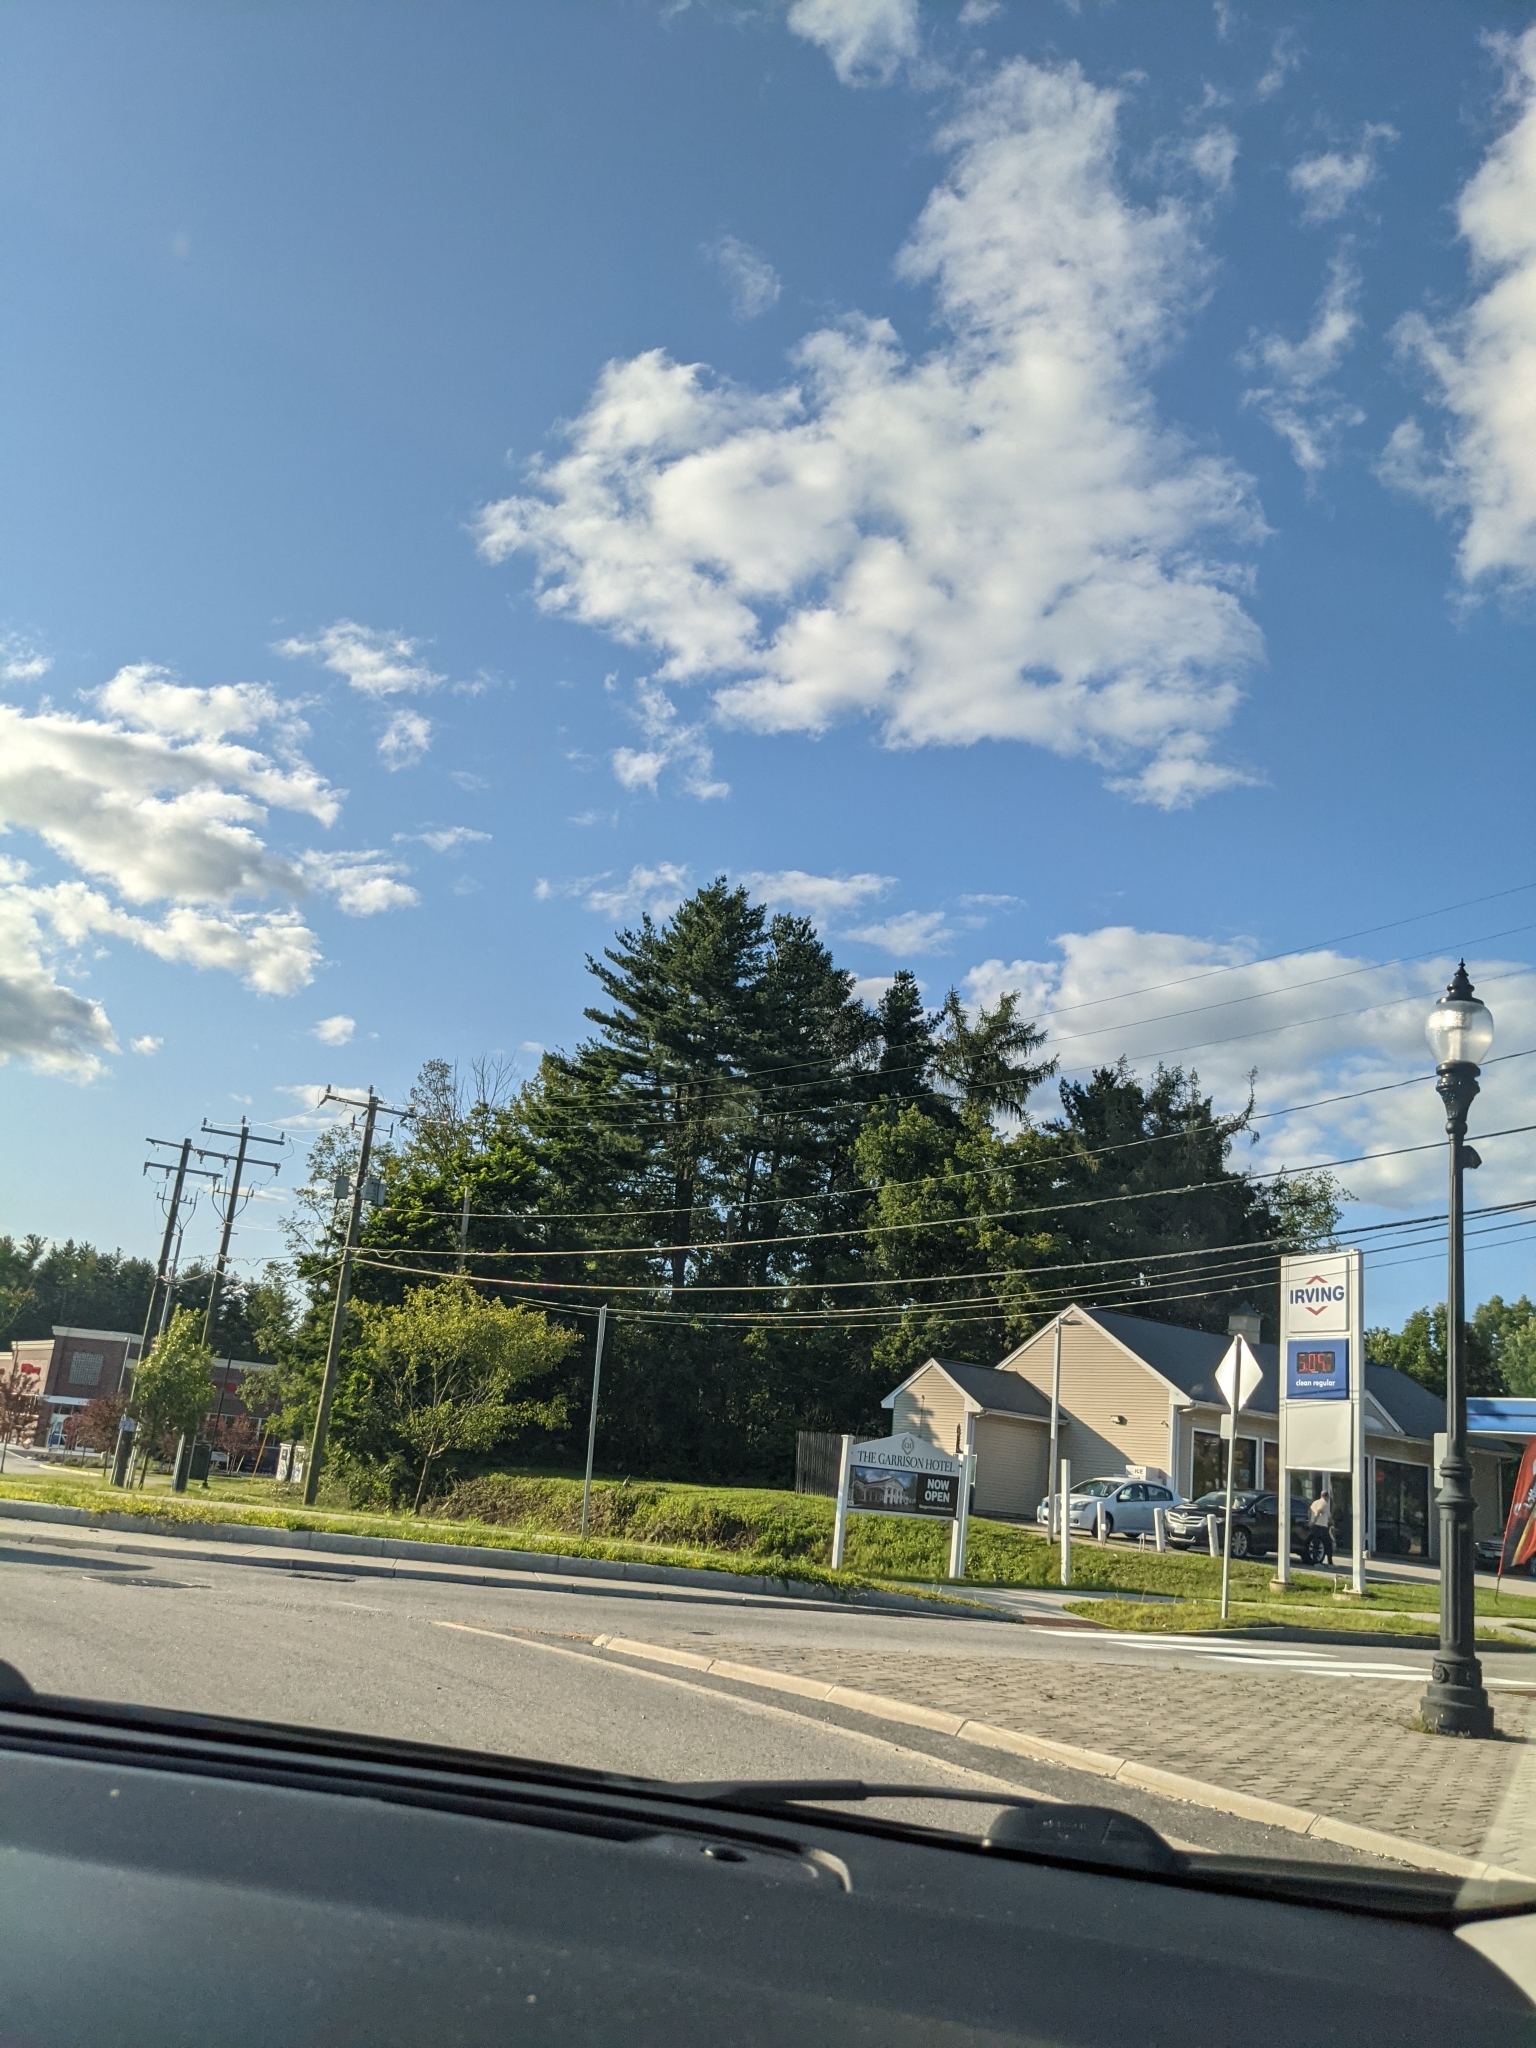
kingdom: Plantae
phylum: Tracheophyta
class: Pinopsida
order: Pinales
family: Pinaceae
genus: Pinus
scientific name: Pinus strobus
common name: Weymouth pine
